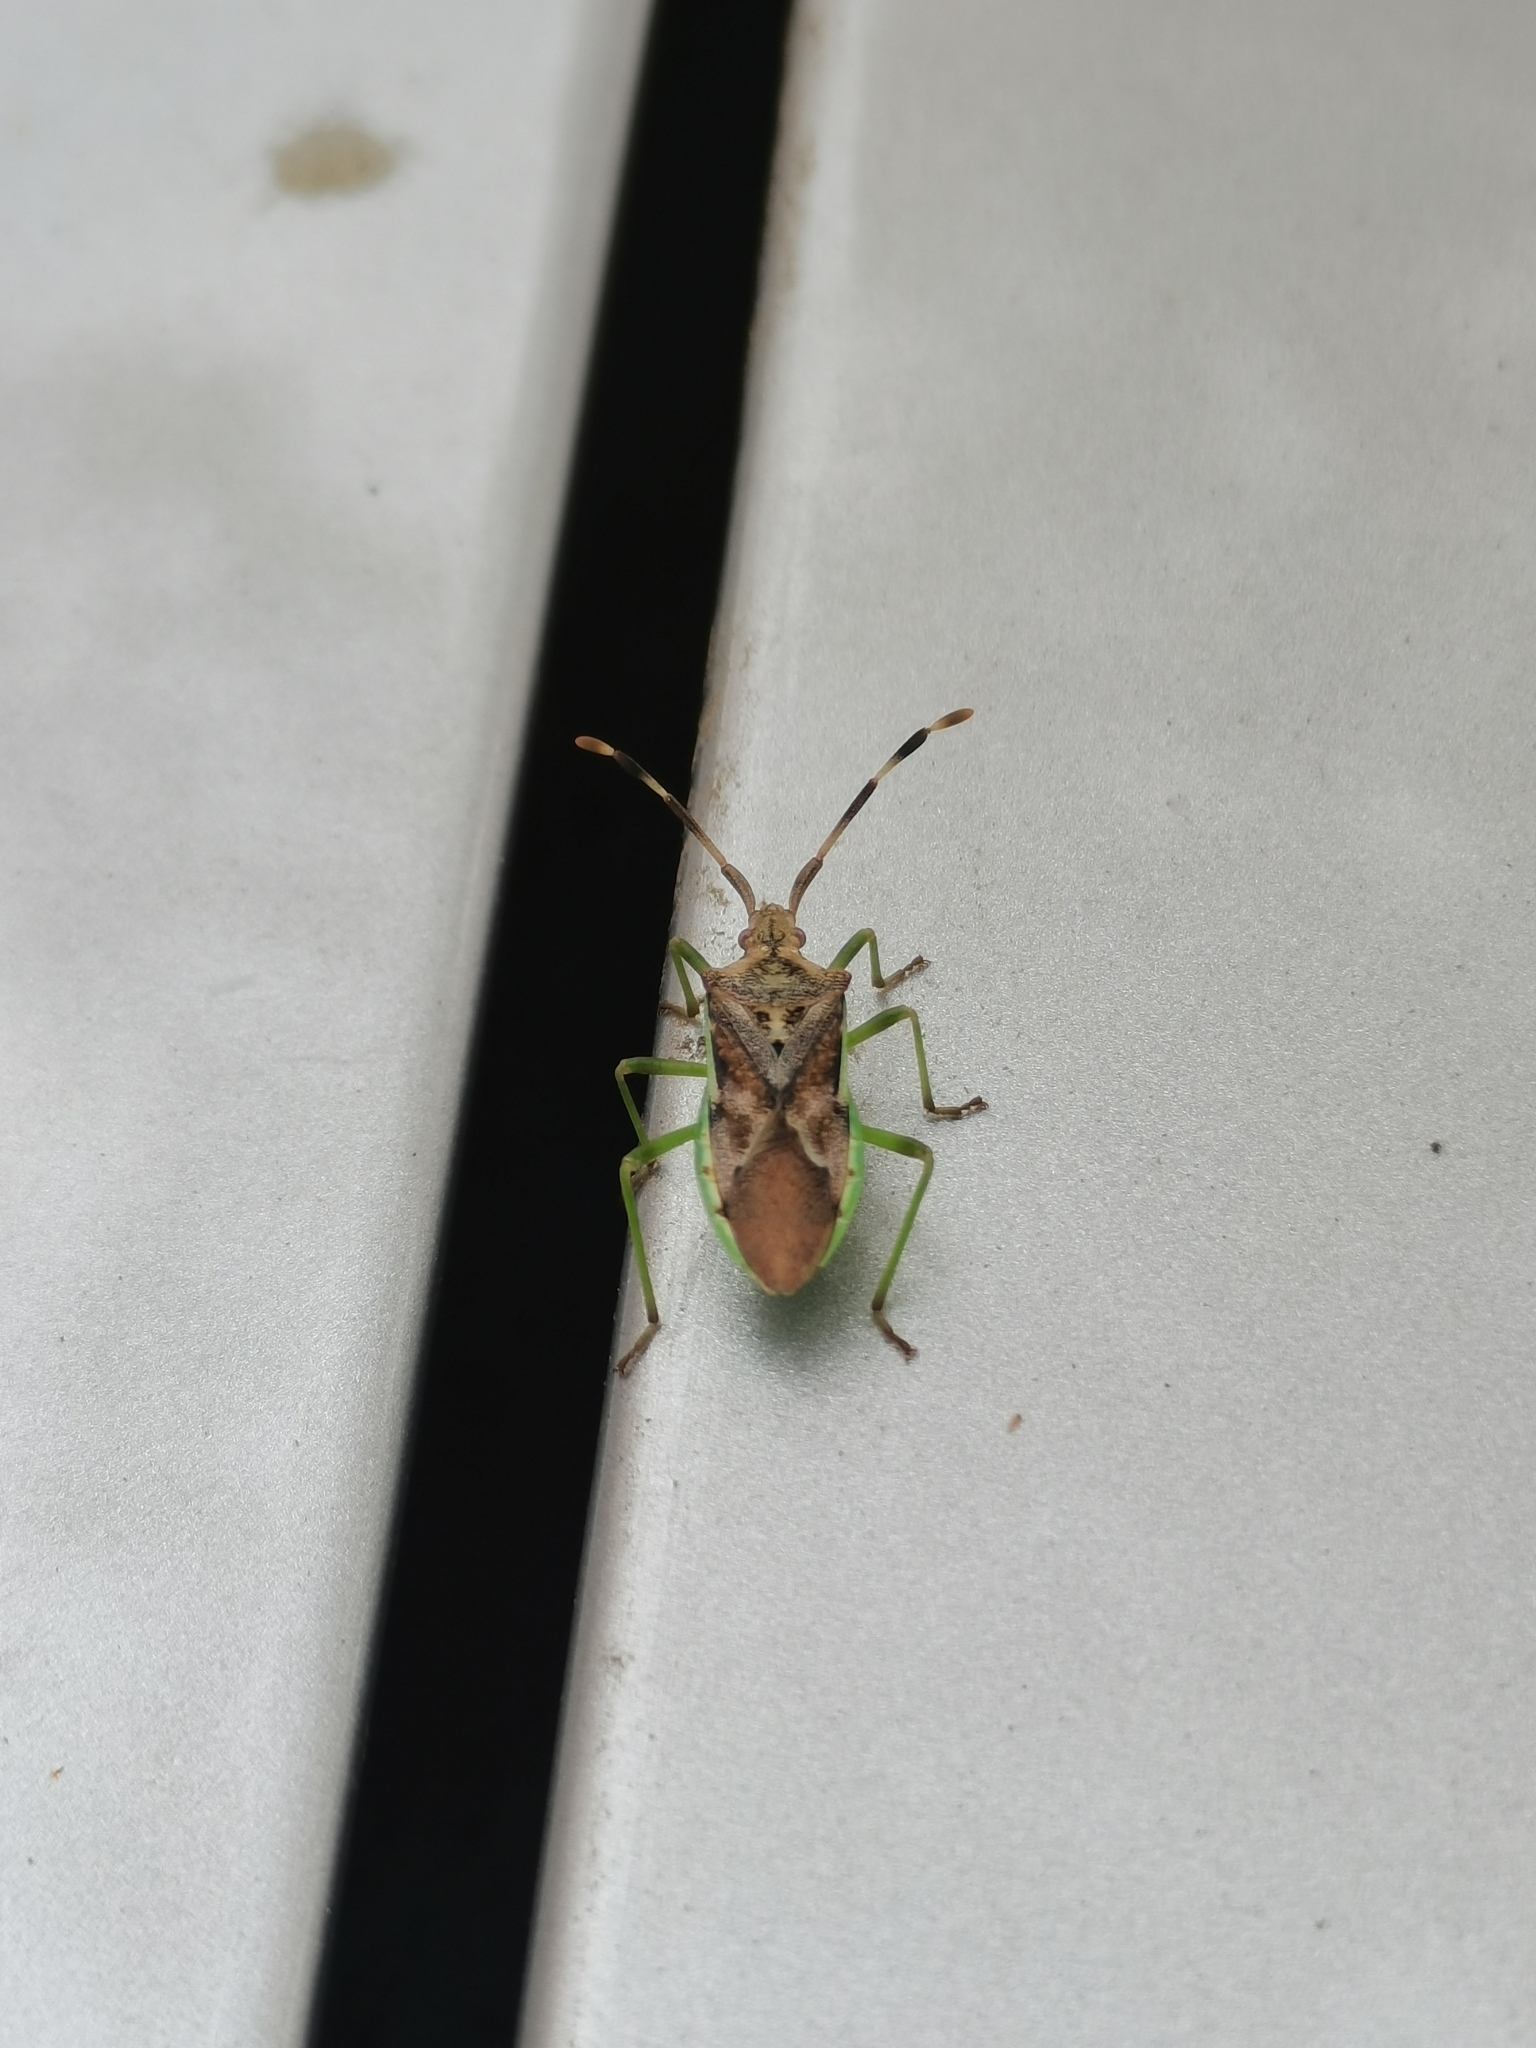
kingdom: Animalia
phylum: Arthropoda
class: Insecta
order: Hemiptera
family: Coreidae
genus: Gonocerus
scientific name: Gonocerus juniperi
